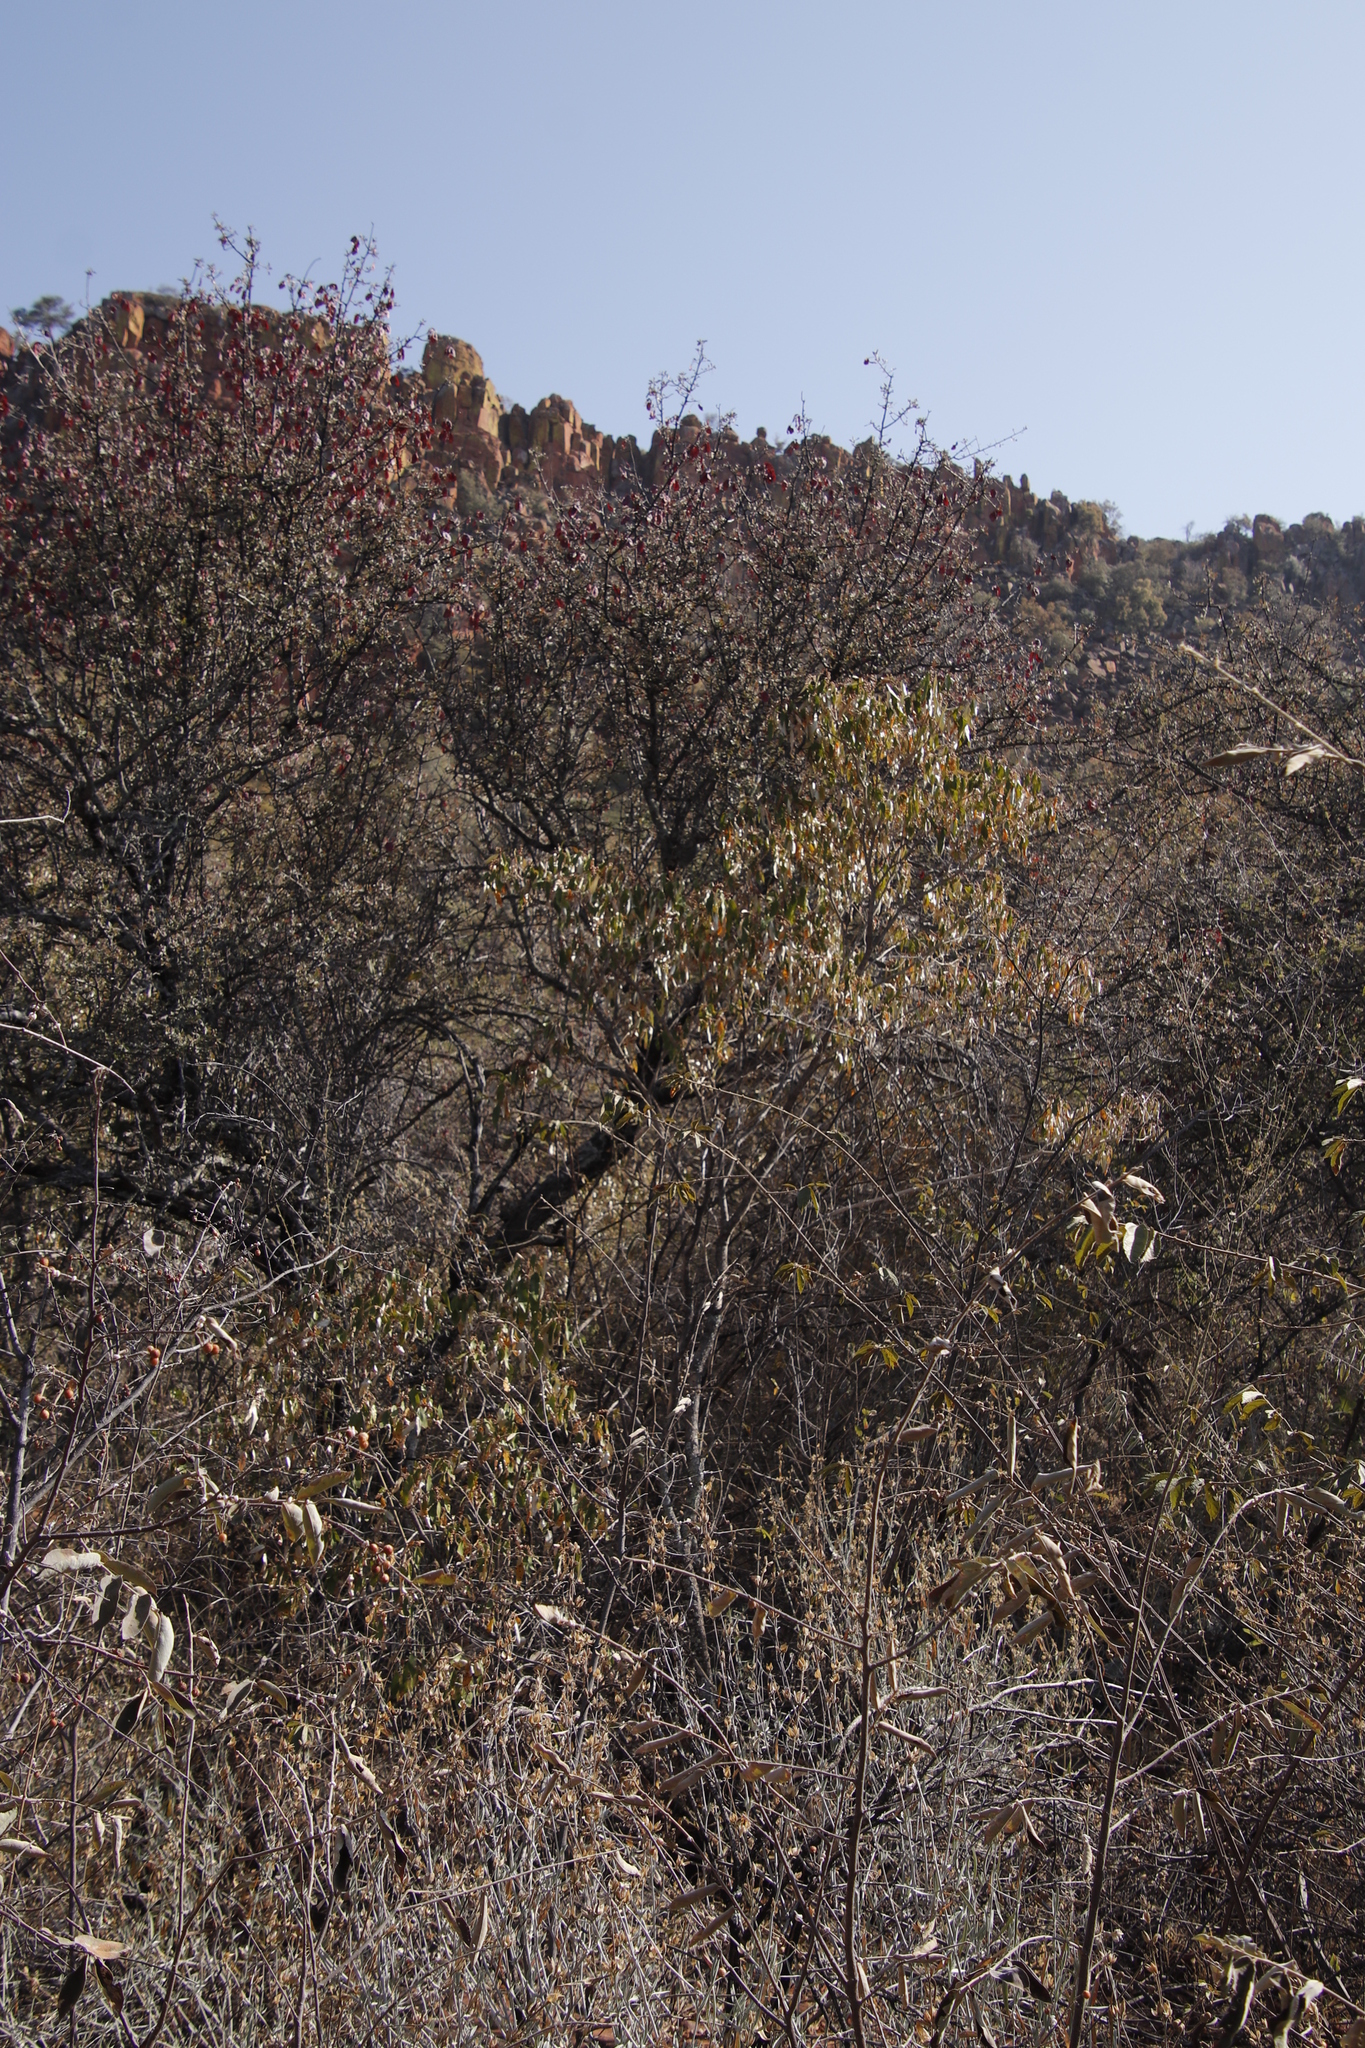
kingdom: Plantae
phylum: Tracheophyta
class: Magnoliopsida
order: Malpighiales
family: Euphorbiaceae
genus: Croton
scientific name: Croton gratissimus
